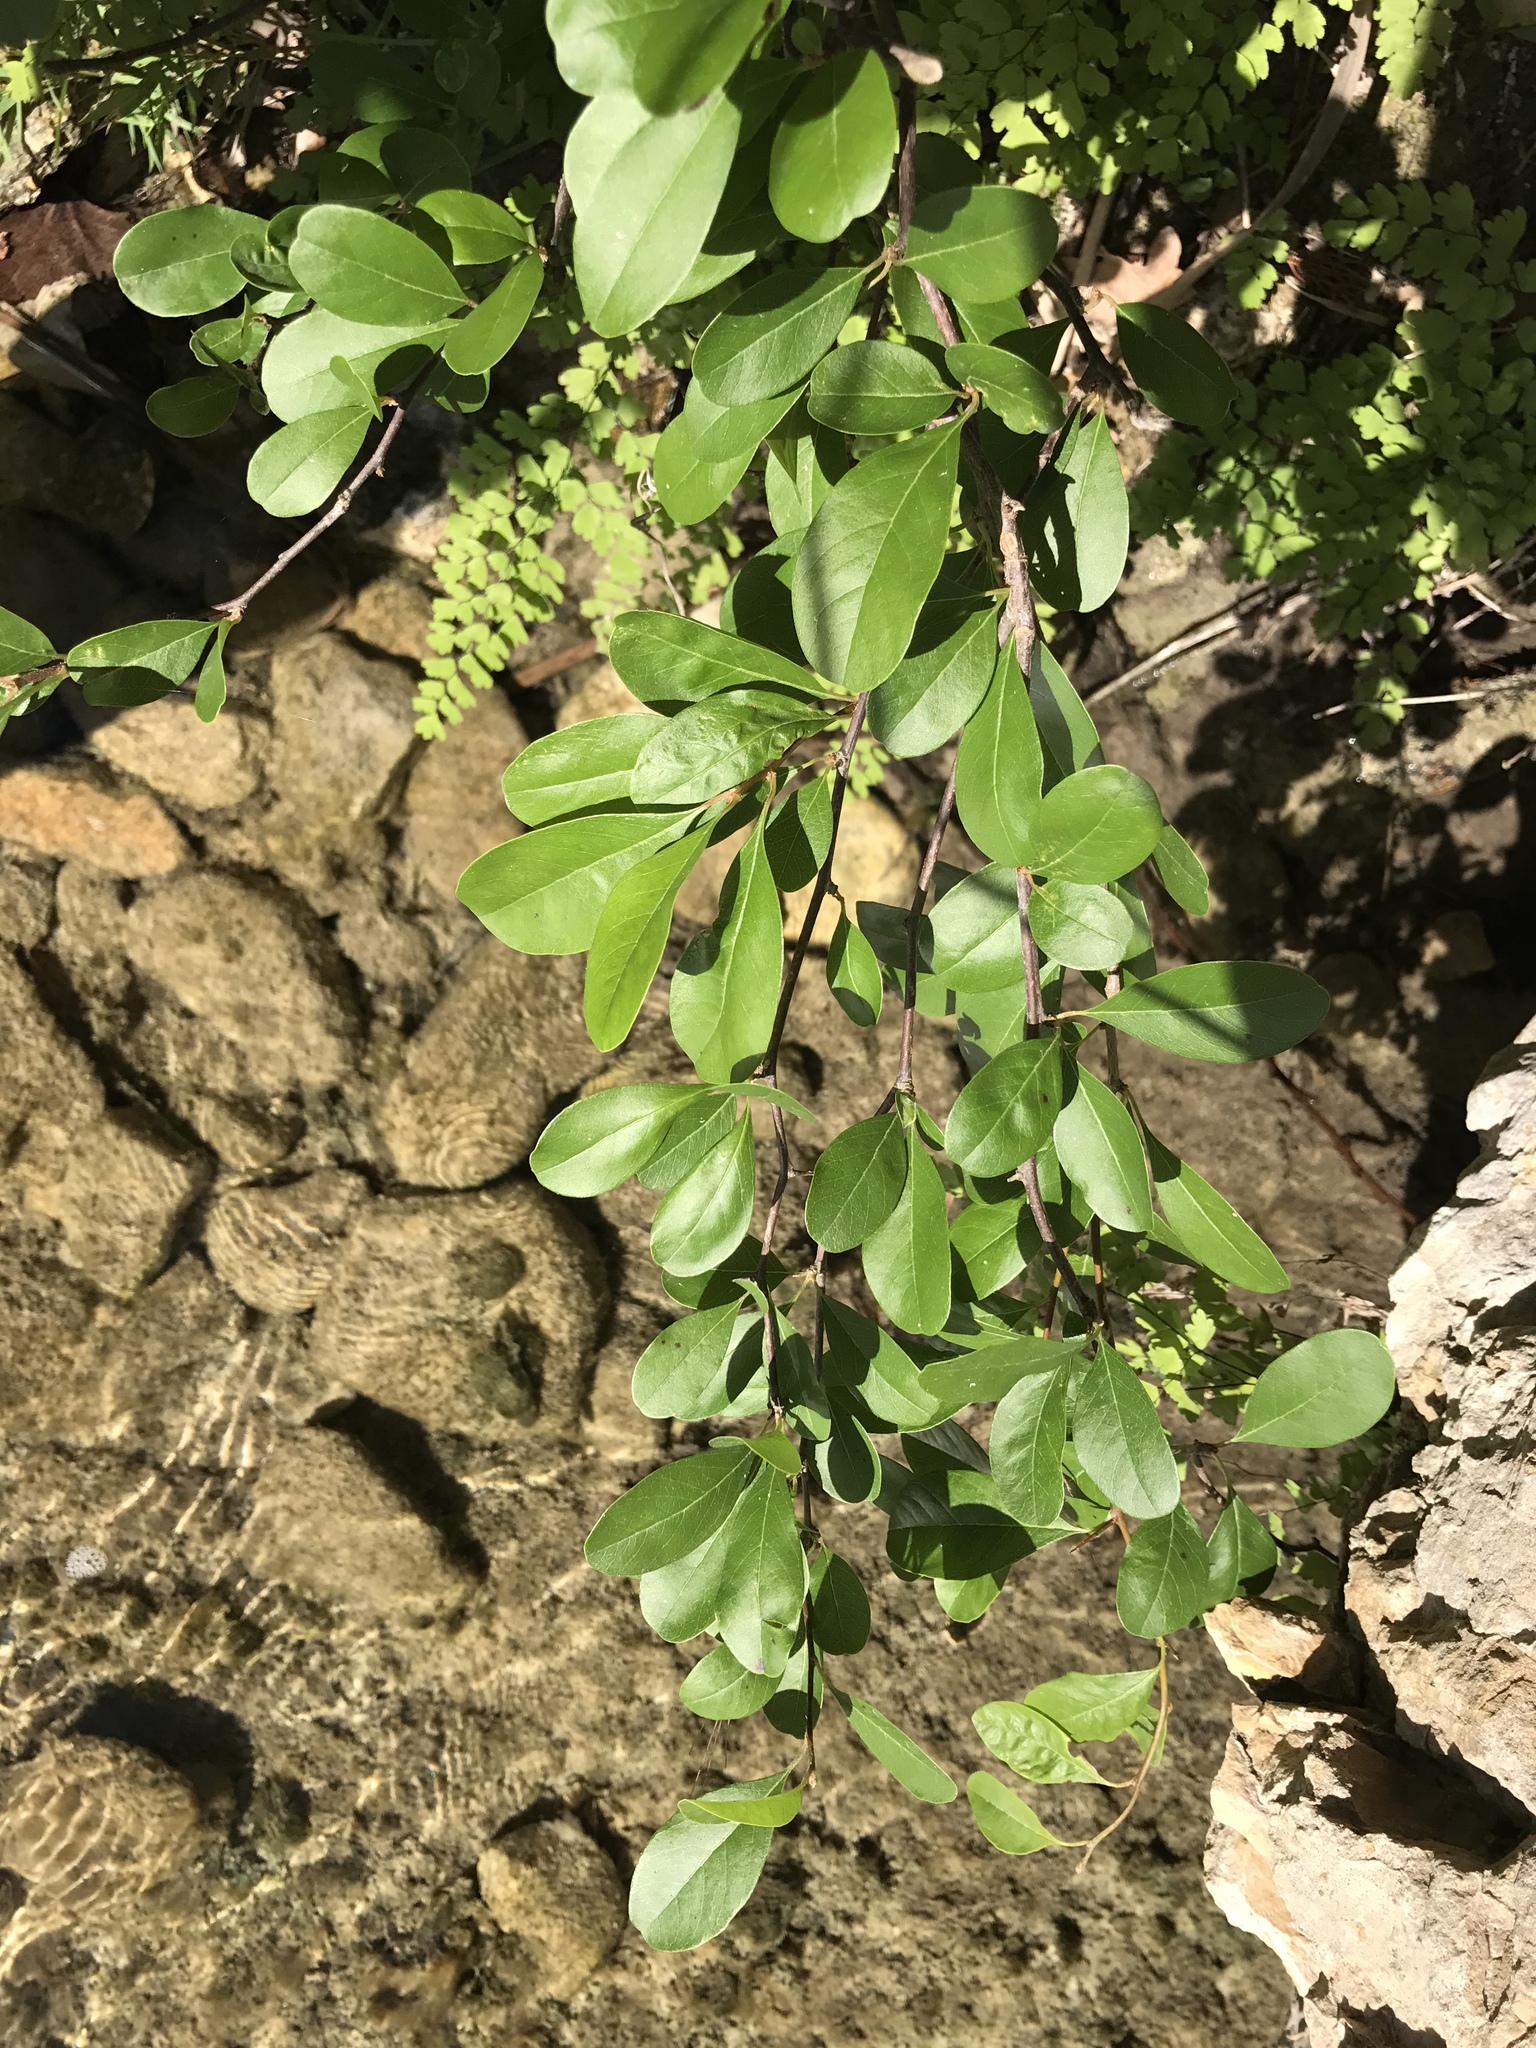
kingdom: Plantae
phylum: Tracheophyta
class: Magnoliopsida
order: Ericales
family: Sapotaceae
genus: Sideroxylon
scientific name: Sideroxylon lanuginosum
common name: Chittamwood
